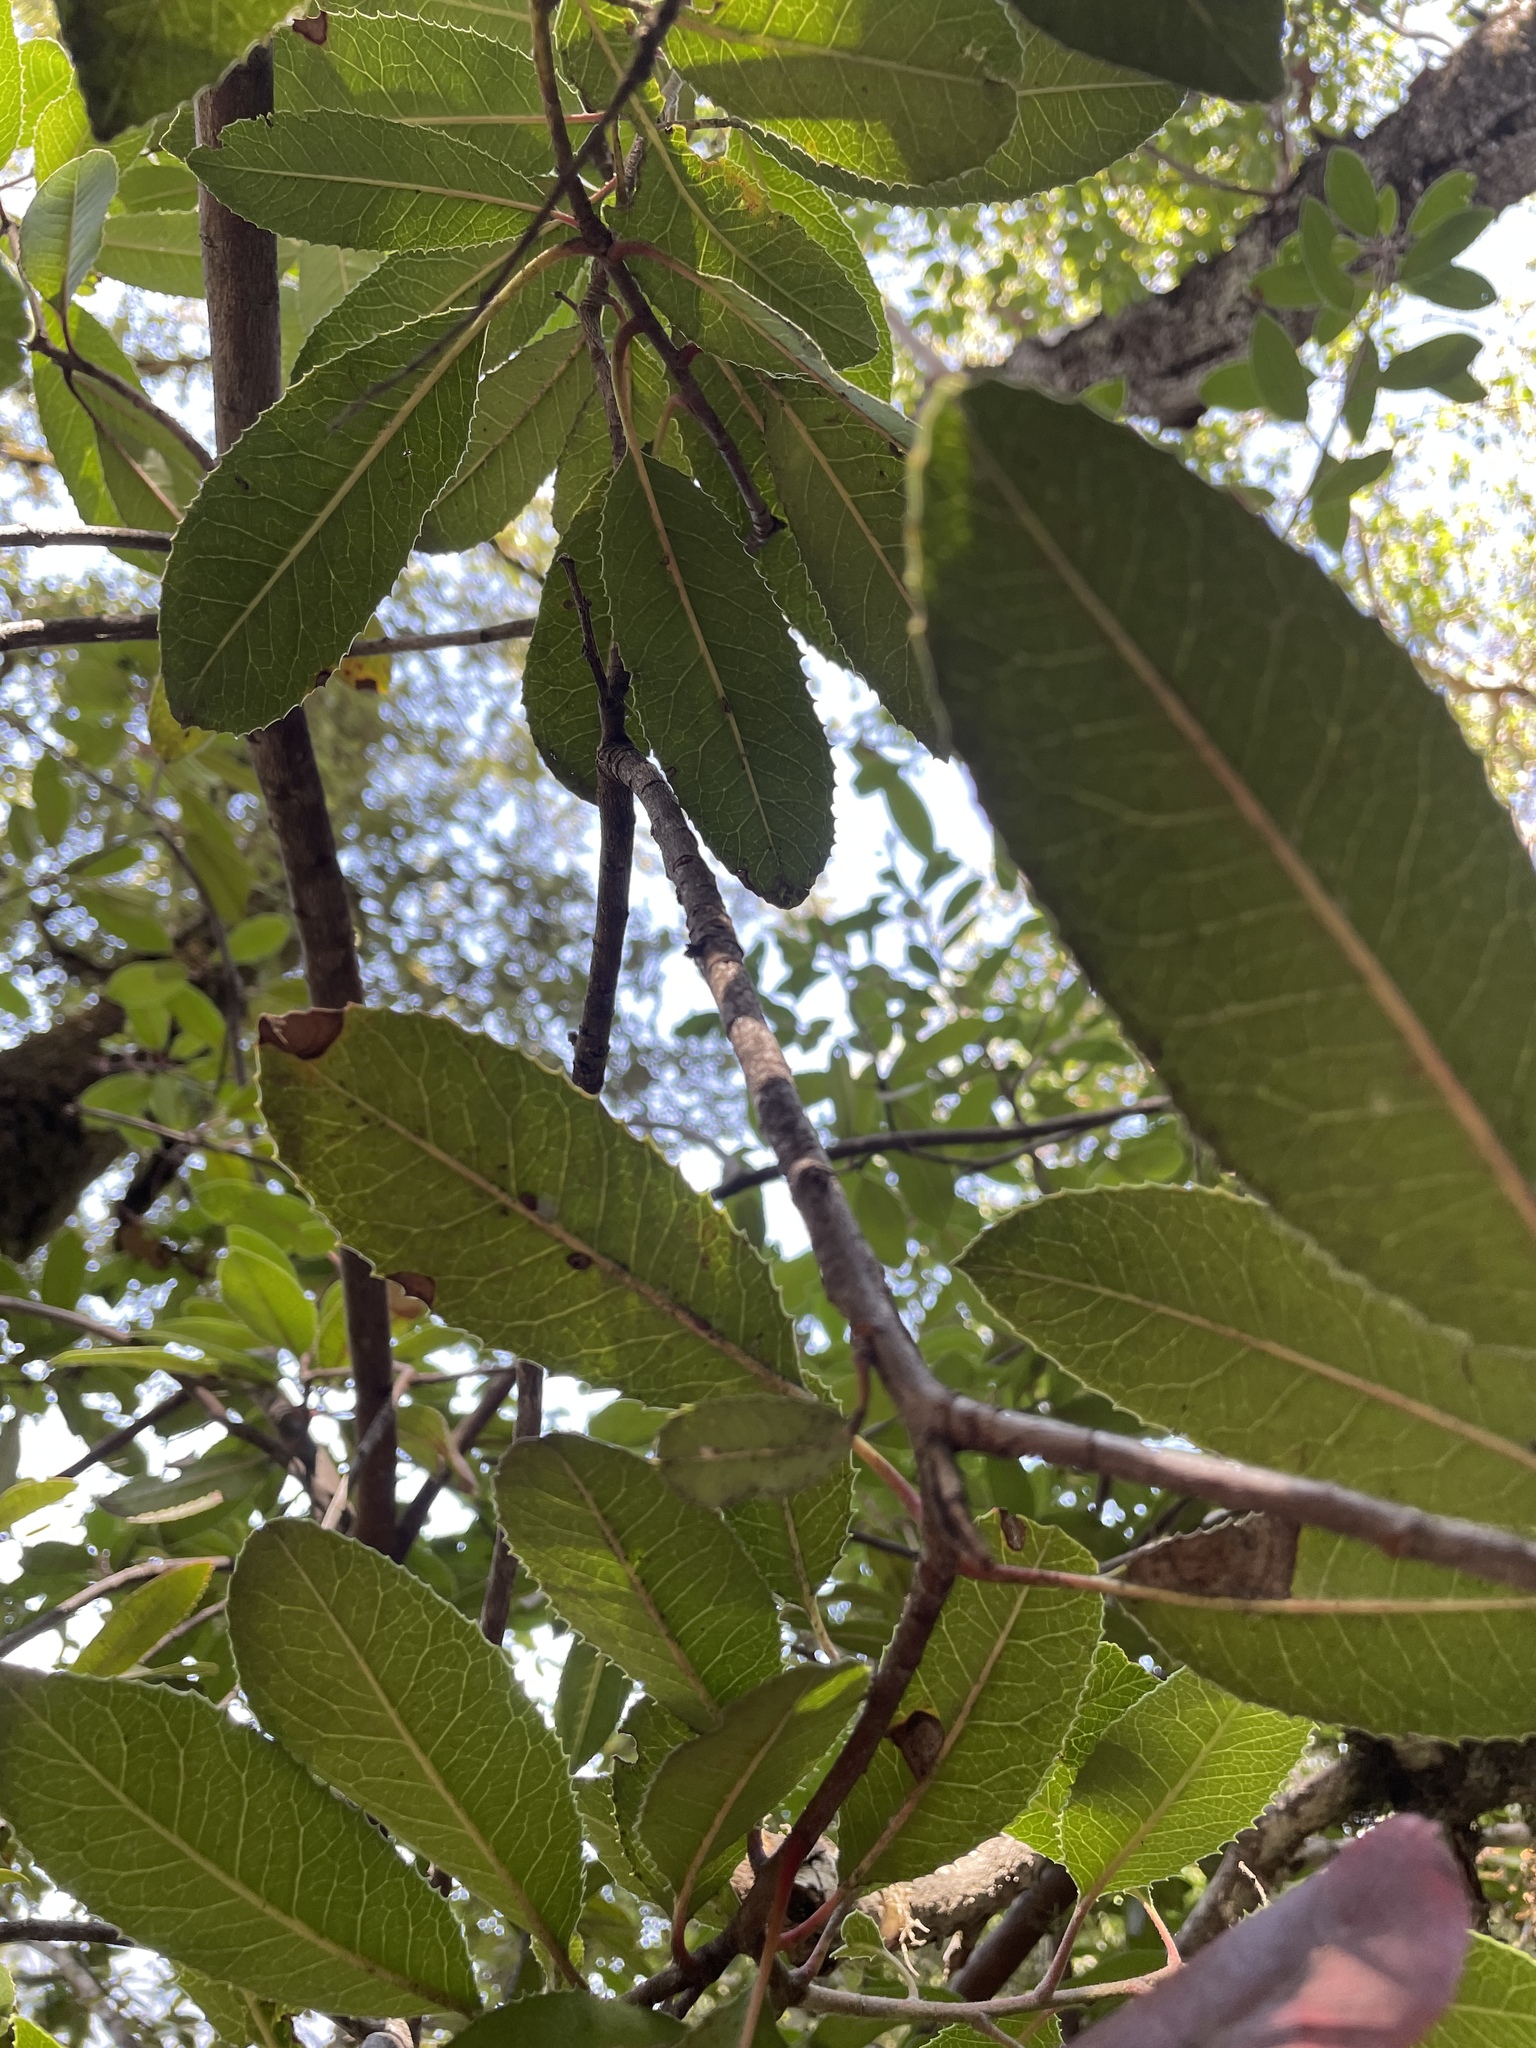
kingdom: Plantae
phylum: Tracheophyta
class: Magnoliopsida
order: Rosales
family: Rosaceae
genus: Heteromeles
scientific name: Heteromeles arbutifolia
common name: California-holly
